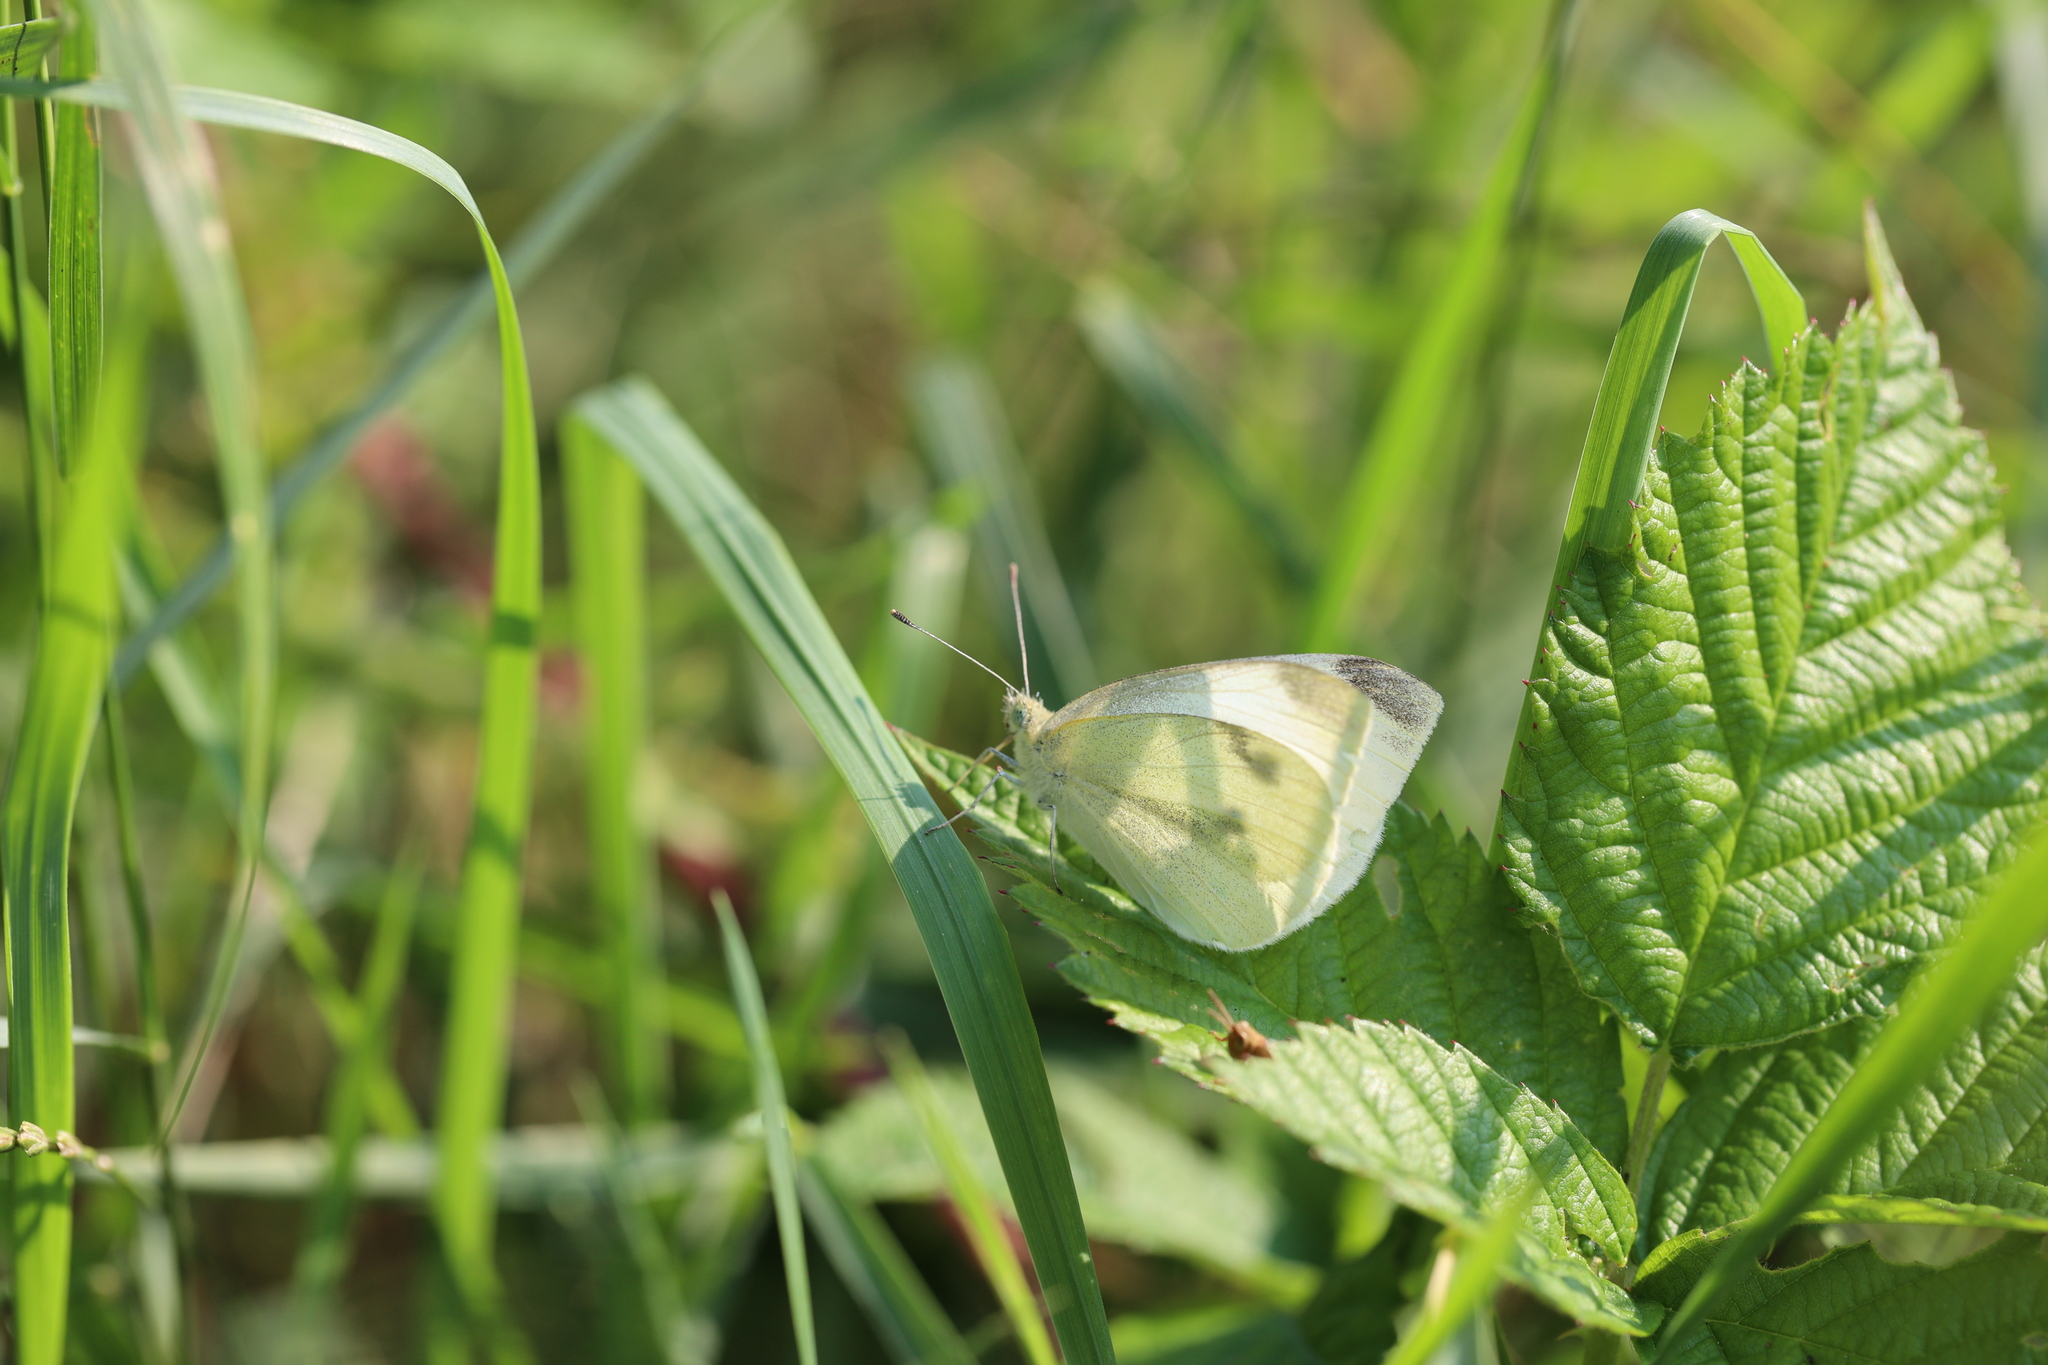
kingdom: Animalia
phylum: Arthropoda
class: Insecta
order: Lepidoptera
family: Pieridae
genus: Pieris
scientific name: Pieris rapae
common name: Small white
